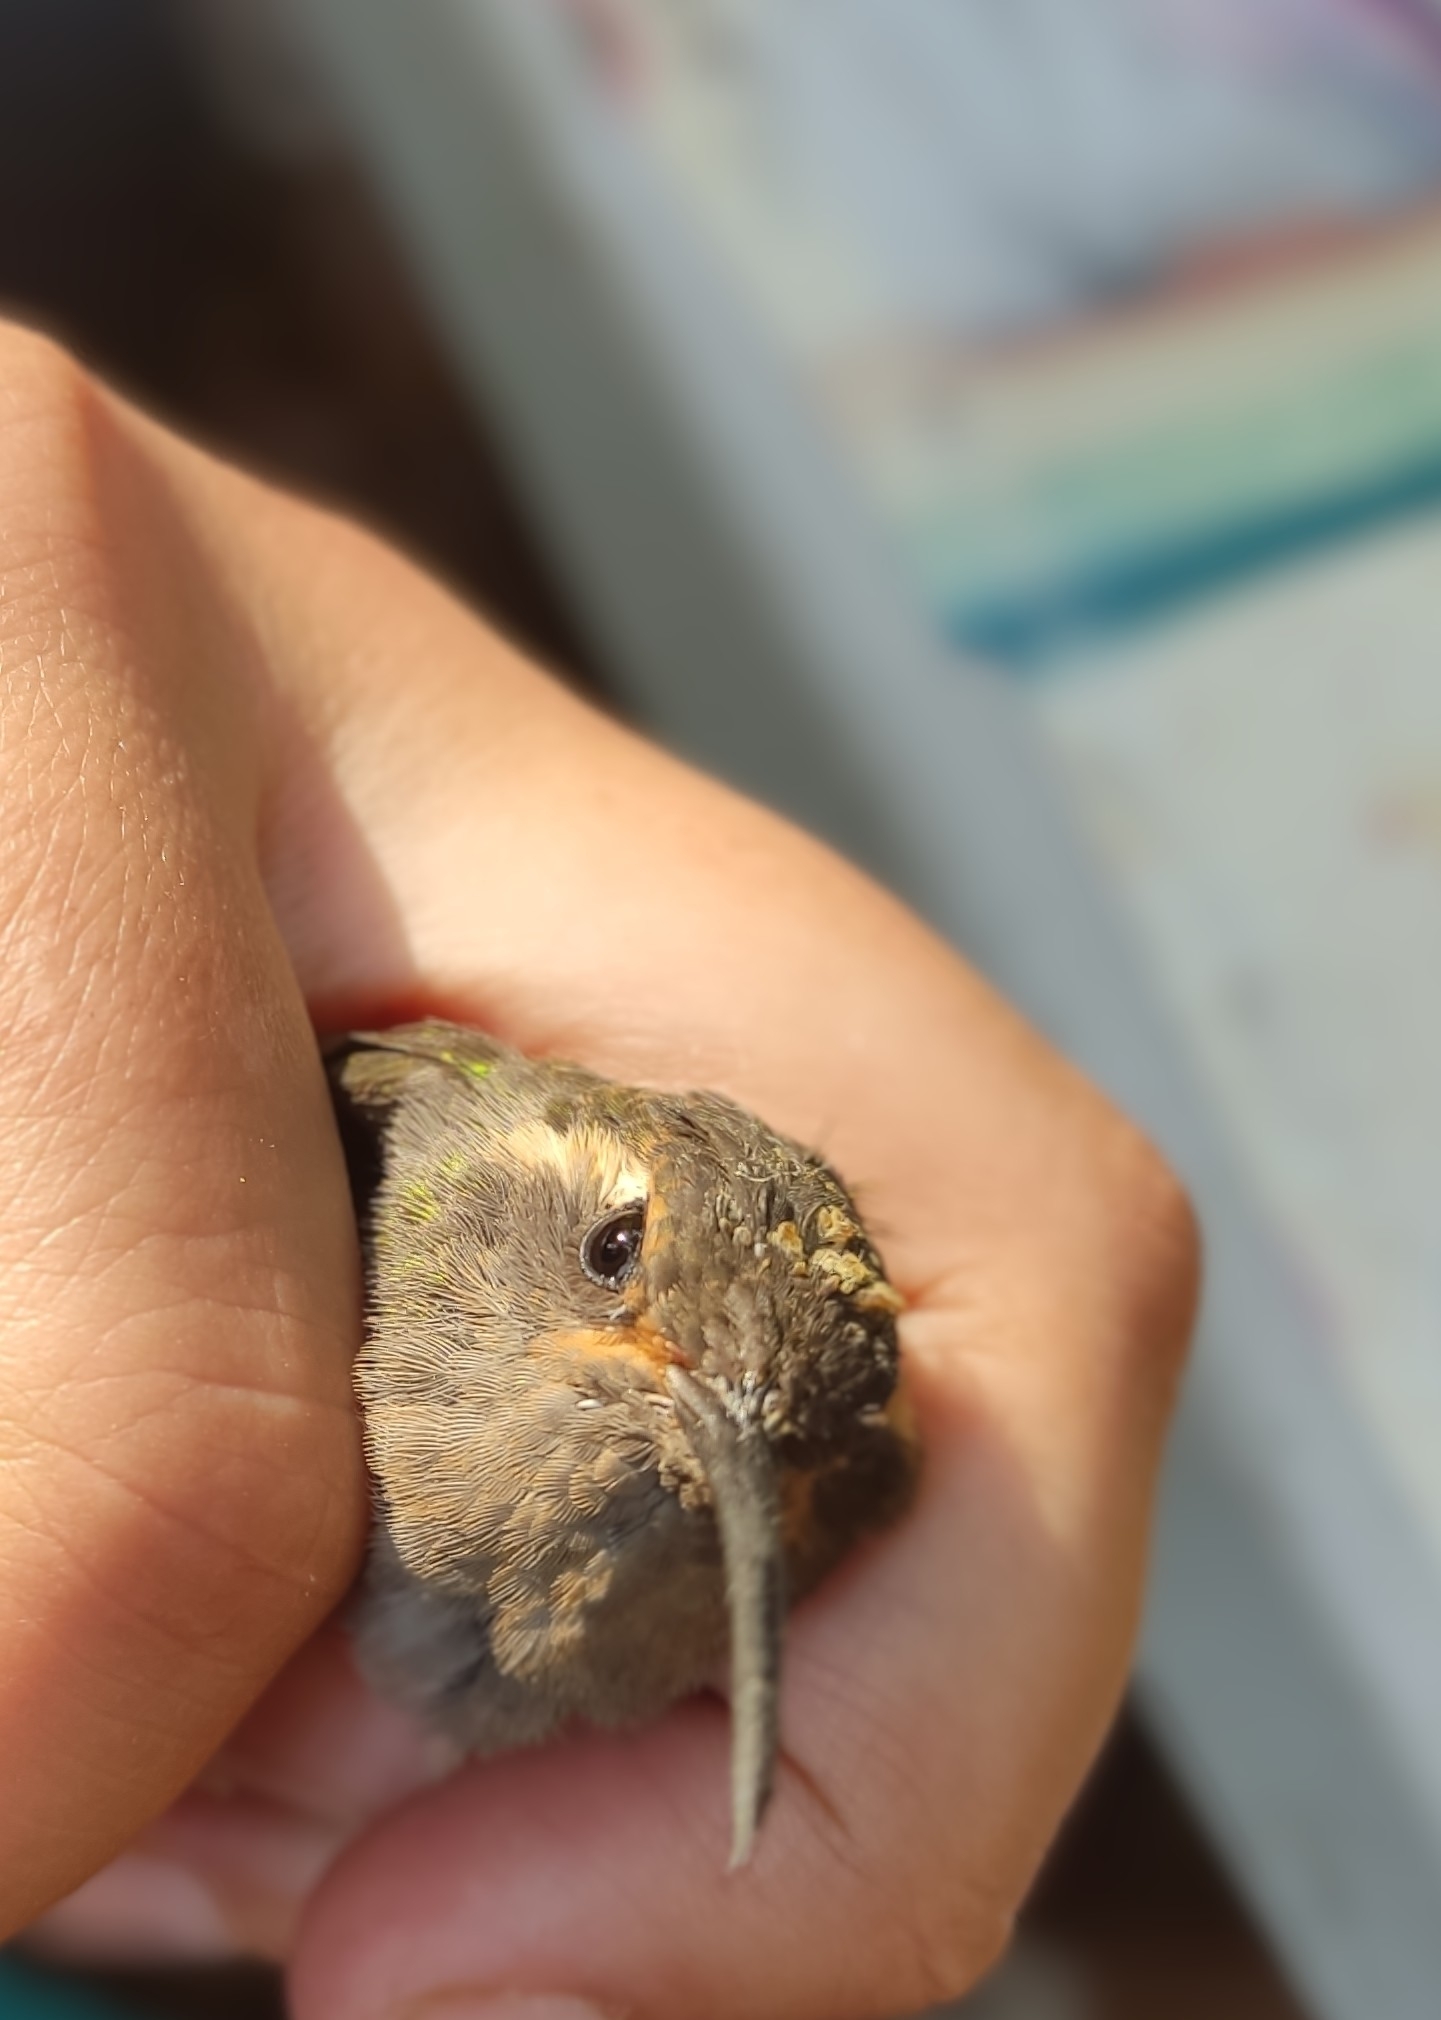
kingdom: Animalia
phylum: Chordata
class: Aves
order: Apodiformes
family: Trochilidae
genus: Lampornis
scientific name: Lampornis amethystinus
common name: Amethyst-throated mountaingem
